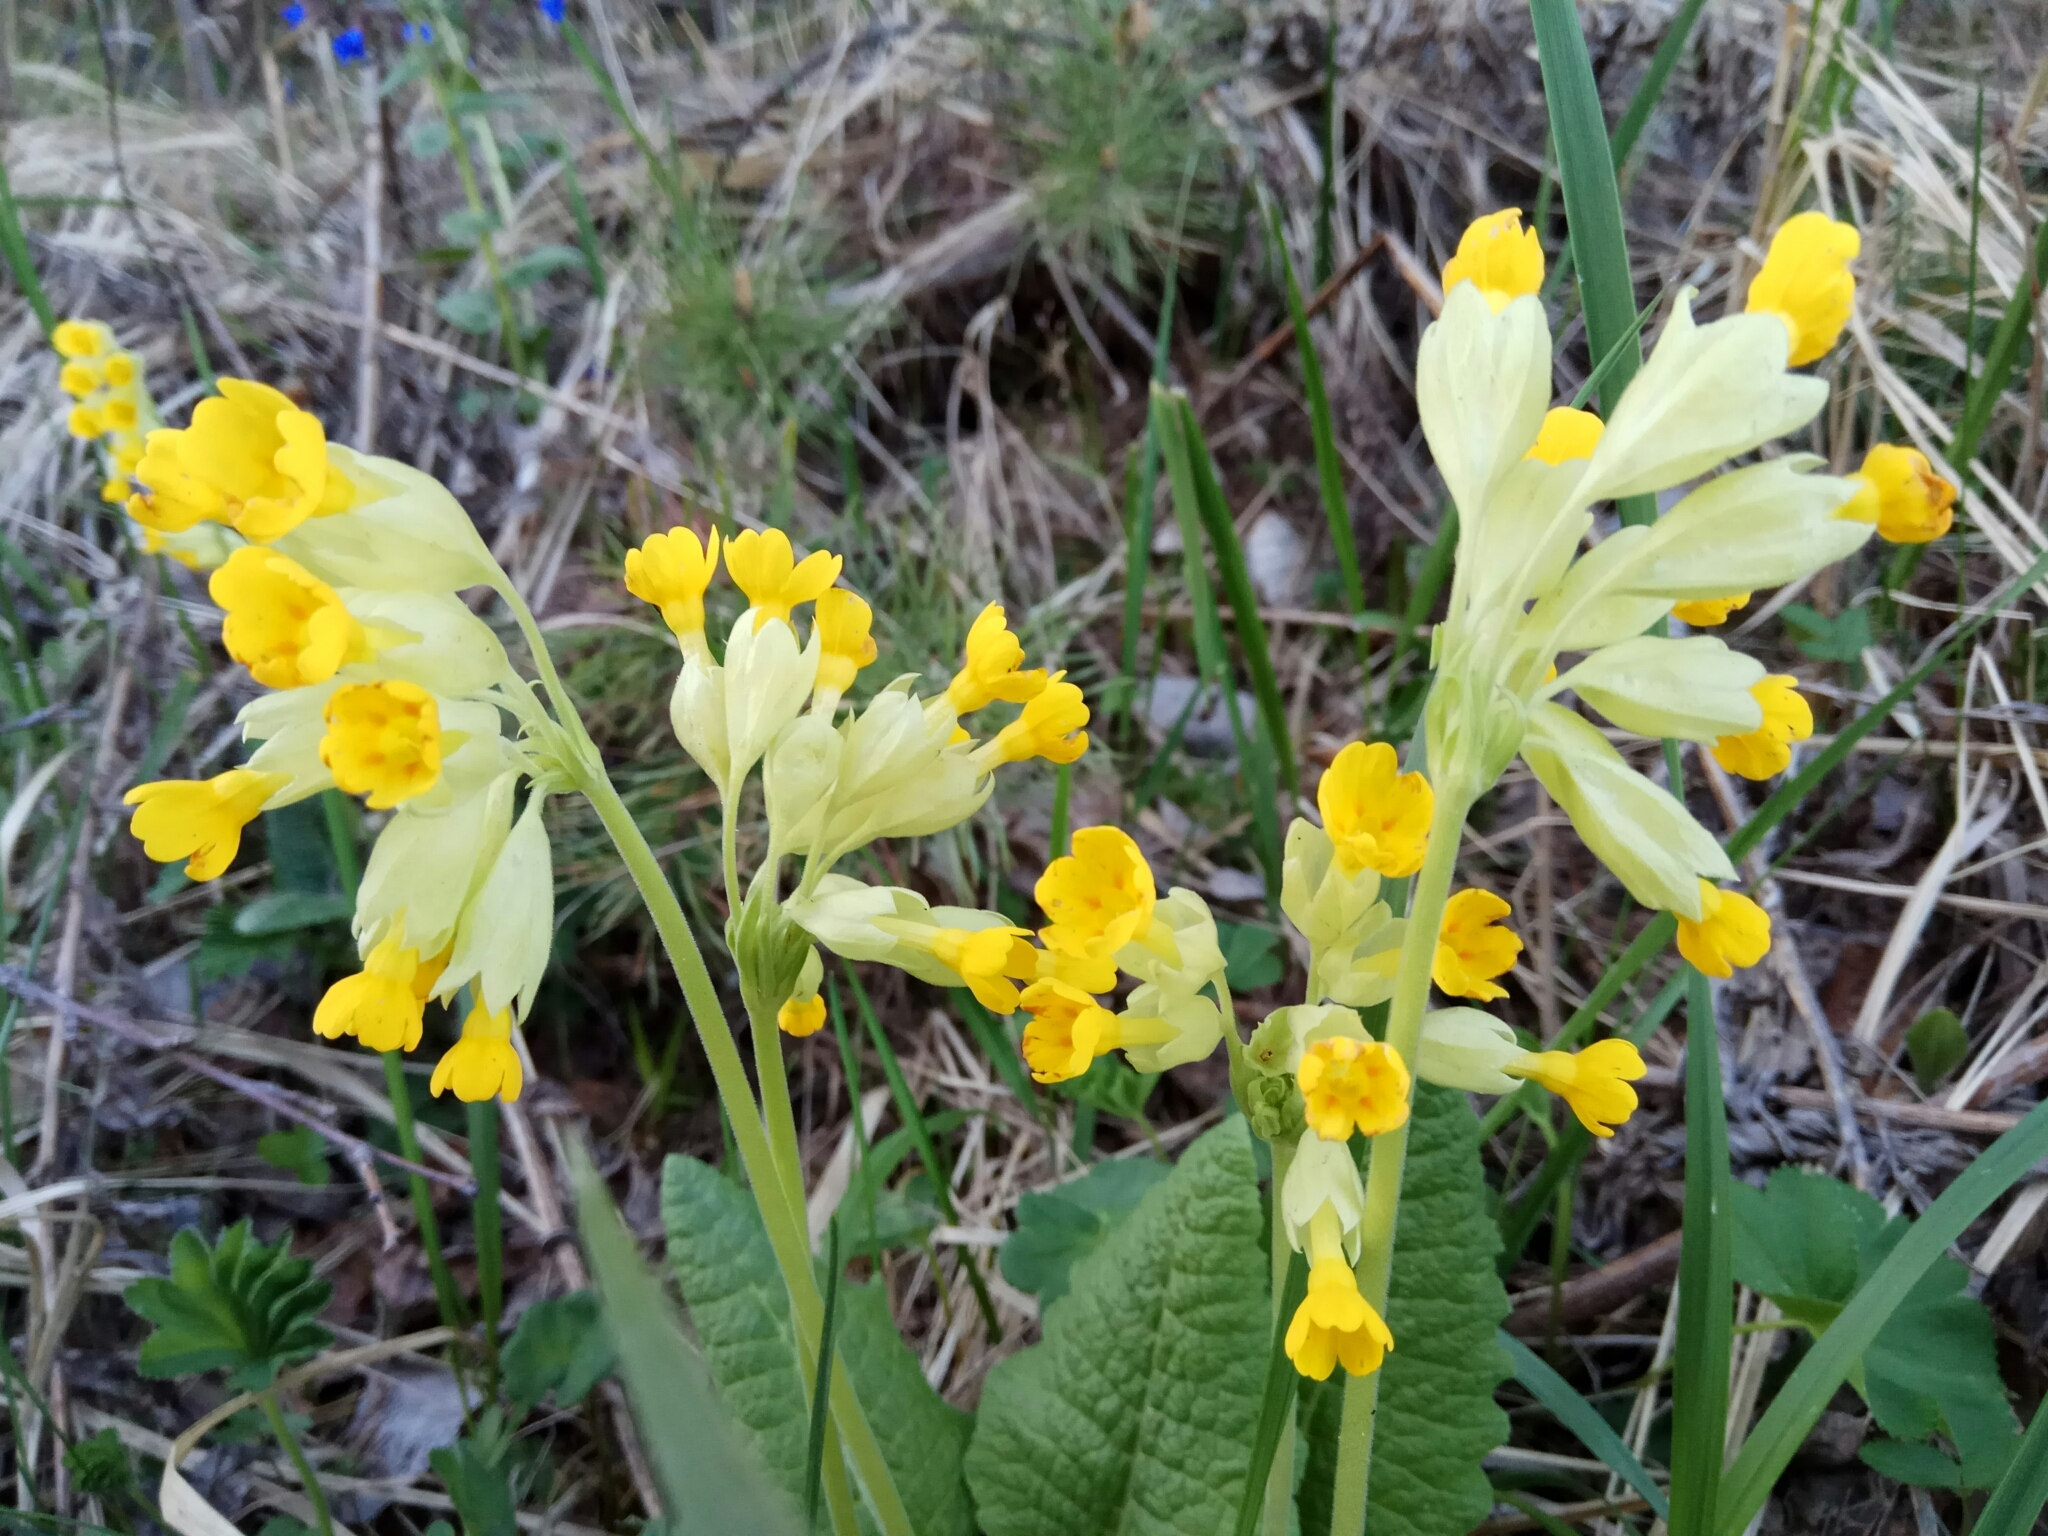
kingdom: Plantae
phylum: Tracheophyta
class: Magnoliopsida
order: Ericales
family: Primulaceae
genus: Primula
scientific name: Primula veris
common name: Cowslip
